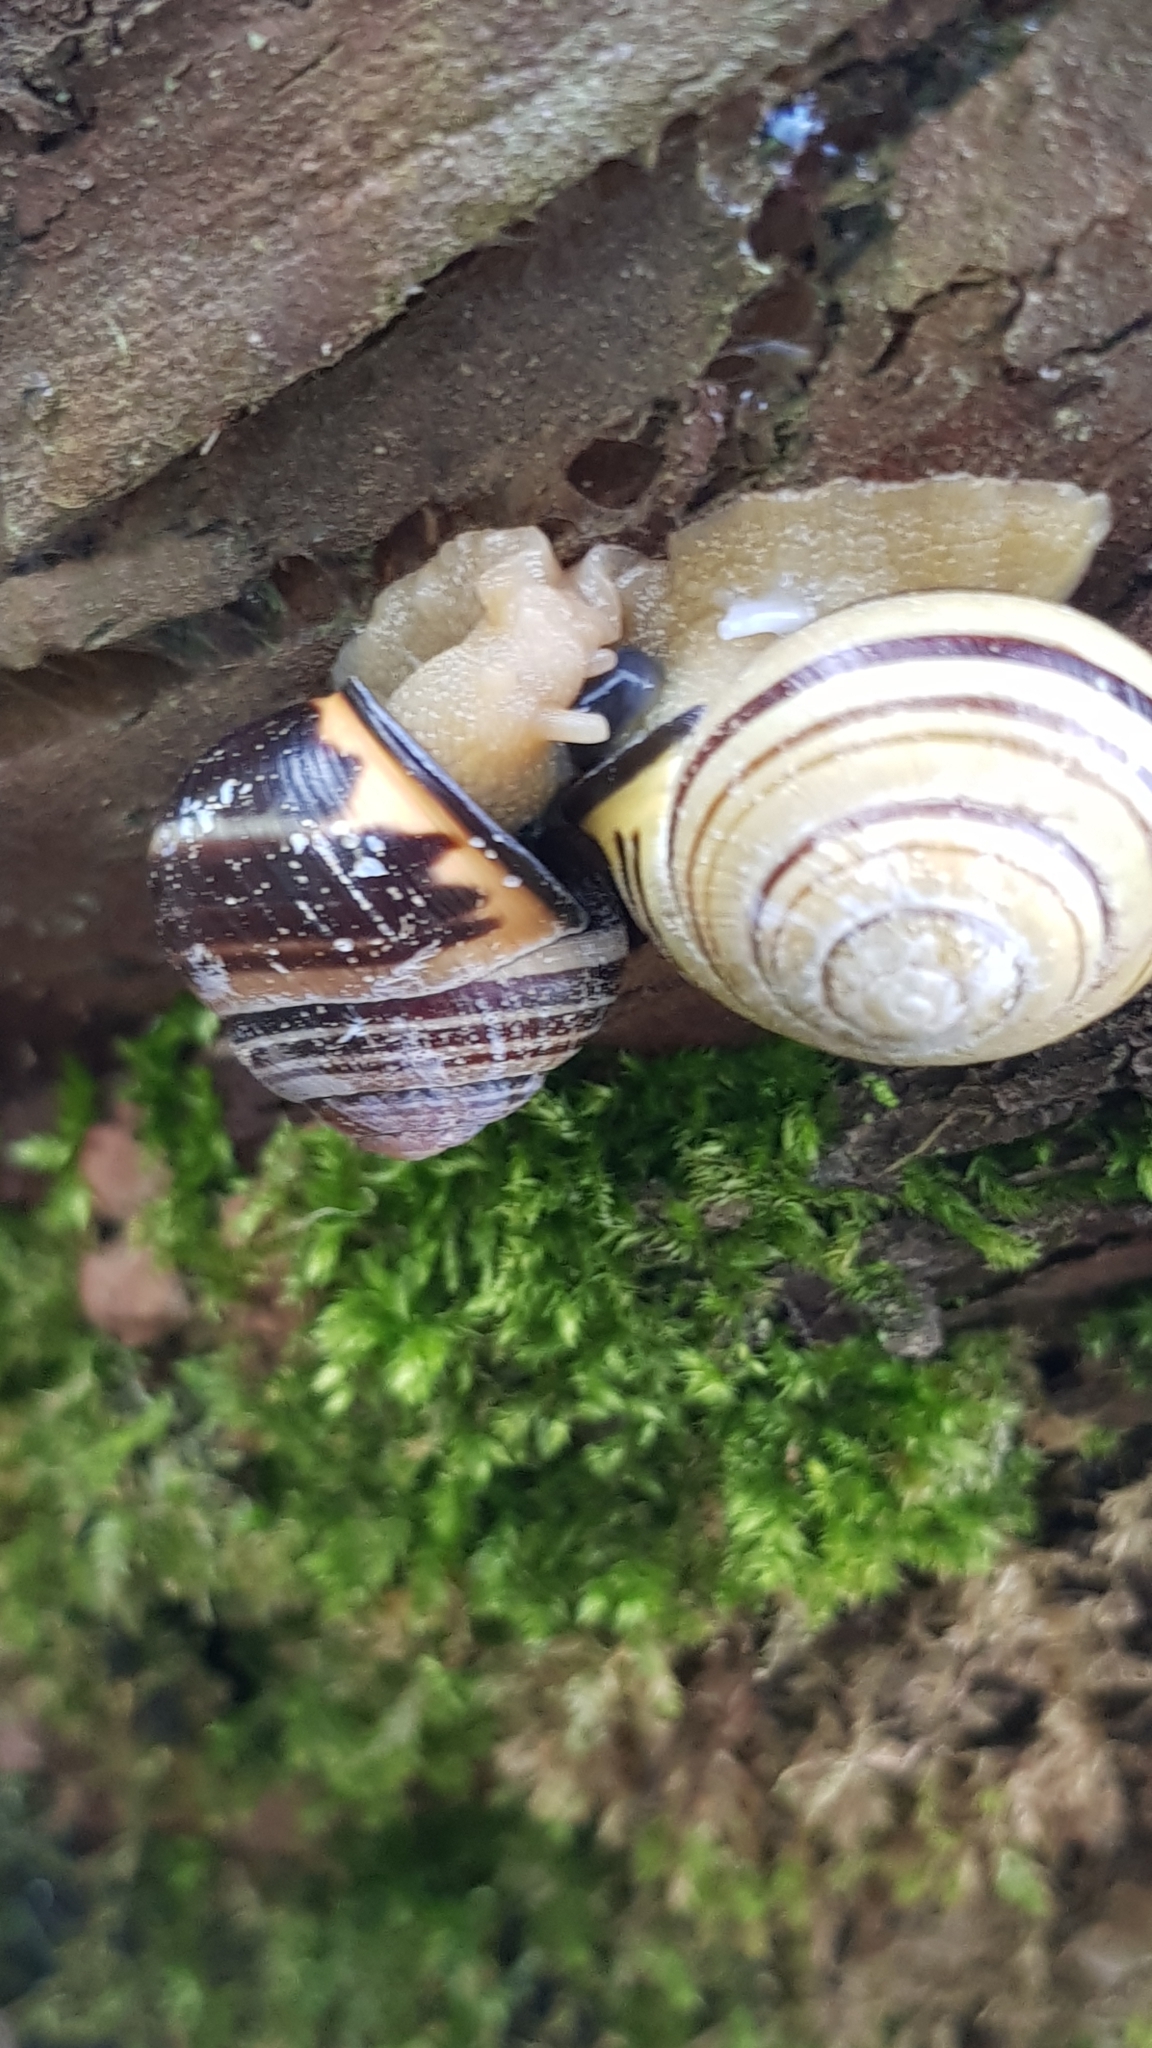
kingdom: Animalia
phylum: Mollusca
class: Gastropoda
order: Stylommatophora
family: Helicidae
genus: Cepaea
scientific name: Cepaea nemoralis
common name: Grovesnail
